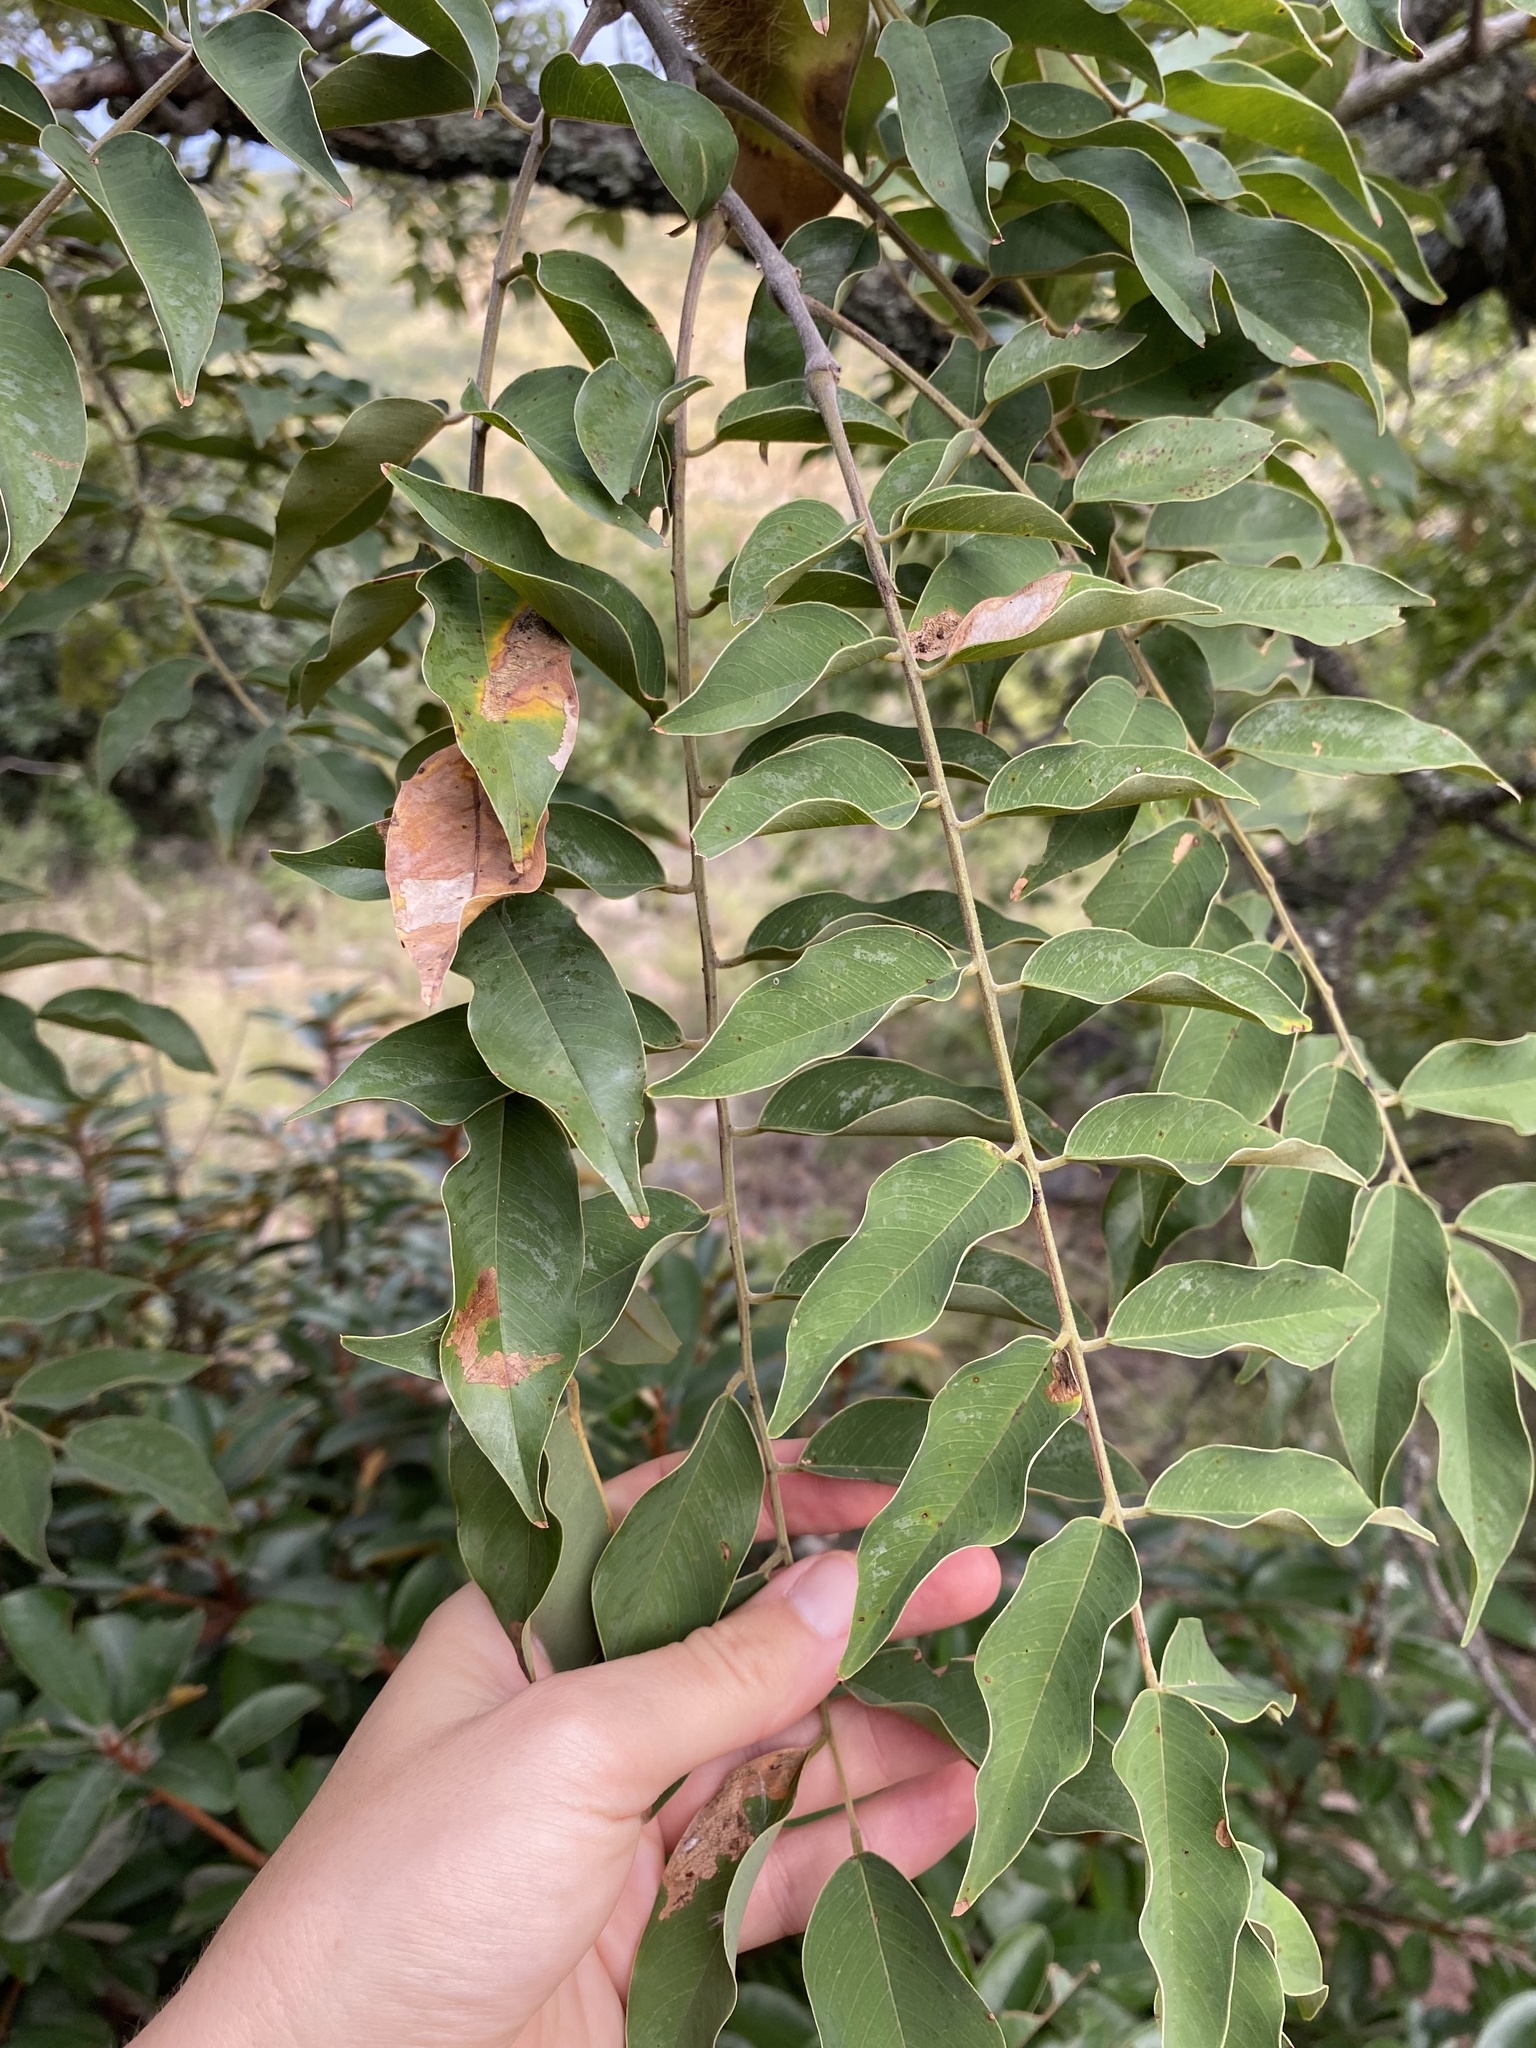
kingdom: Plantae
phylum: Tracheophyta
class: Magnoliopsida
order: Fabales
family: Fabaceae
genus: Pterocarpus
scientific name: Pterocarpus angolensis
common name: Bloodwood tree
